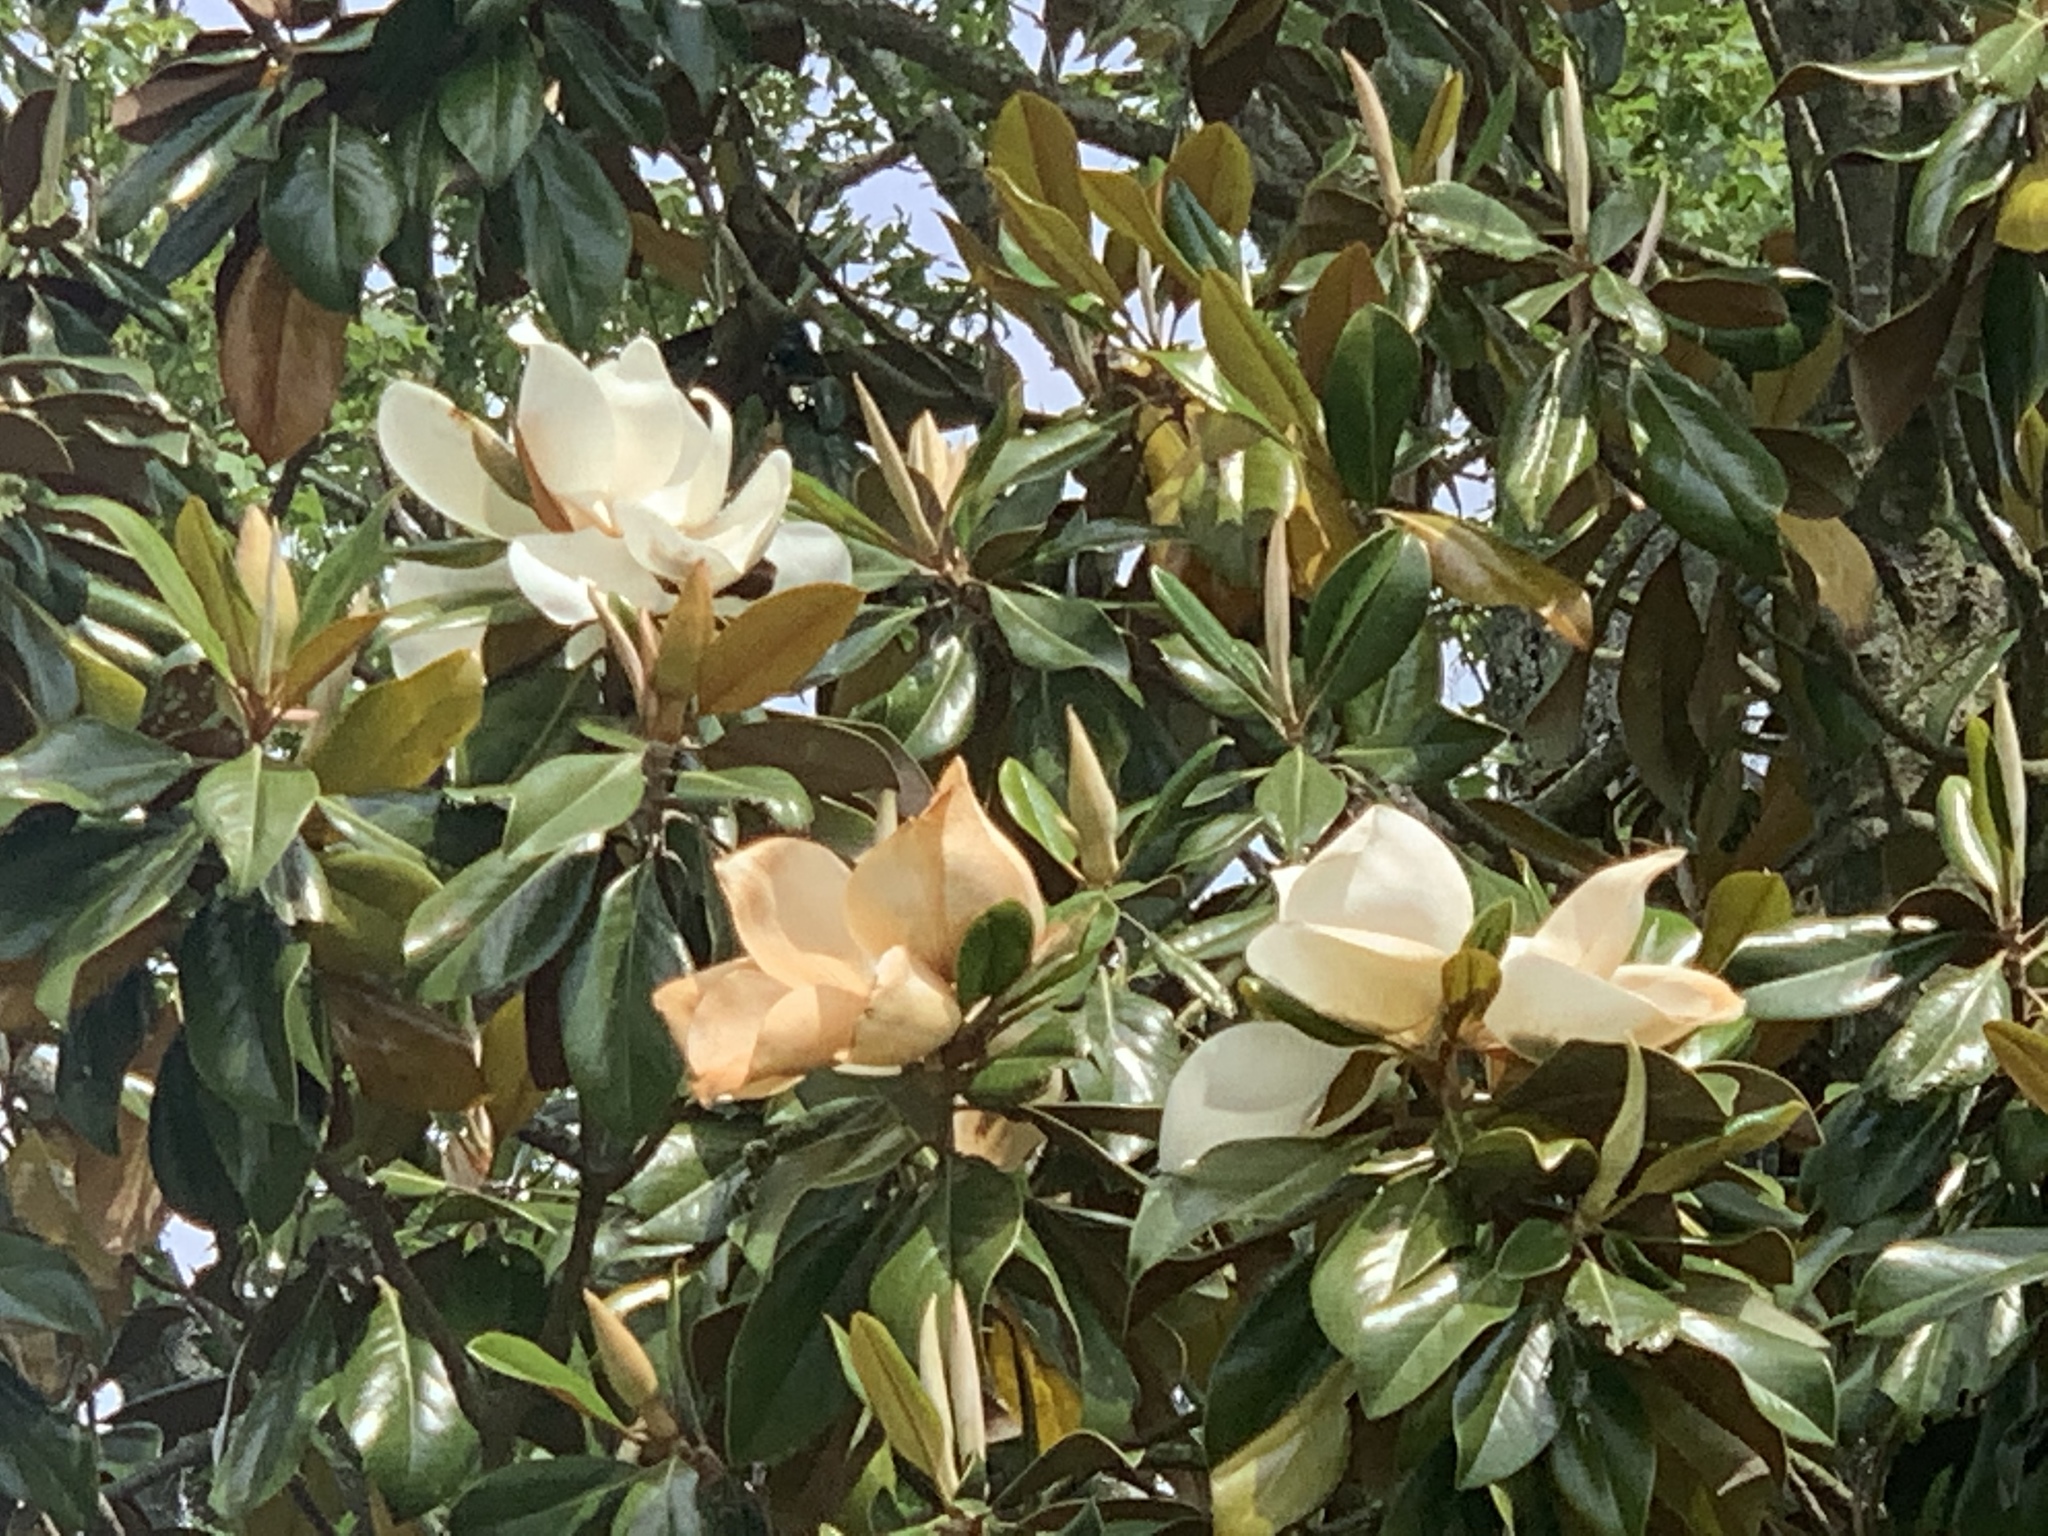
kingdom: Plantae
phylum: Tracheophyta
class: Magnoliopsida
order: Magnoliales
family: Magnoliaceae
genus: Magnolia
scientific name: Magnolia grandiflora
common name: Southern magnolia
